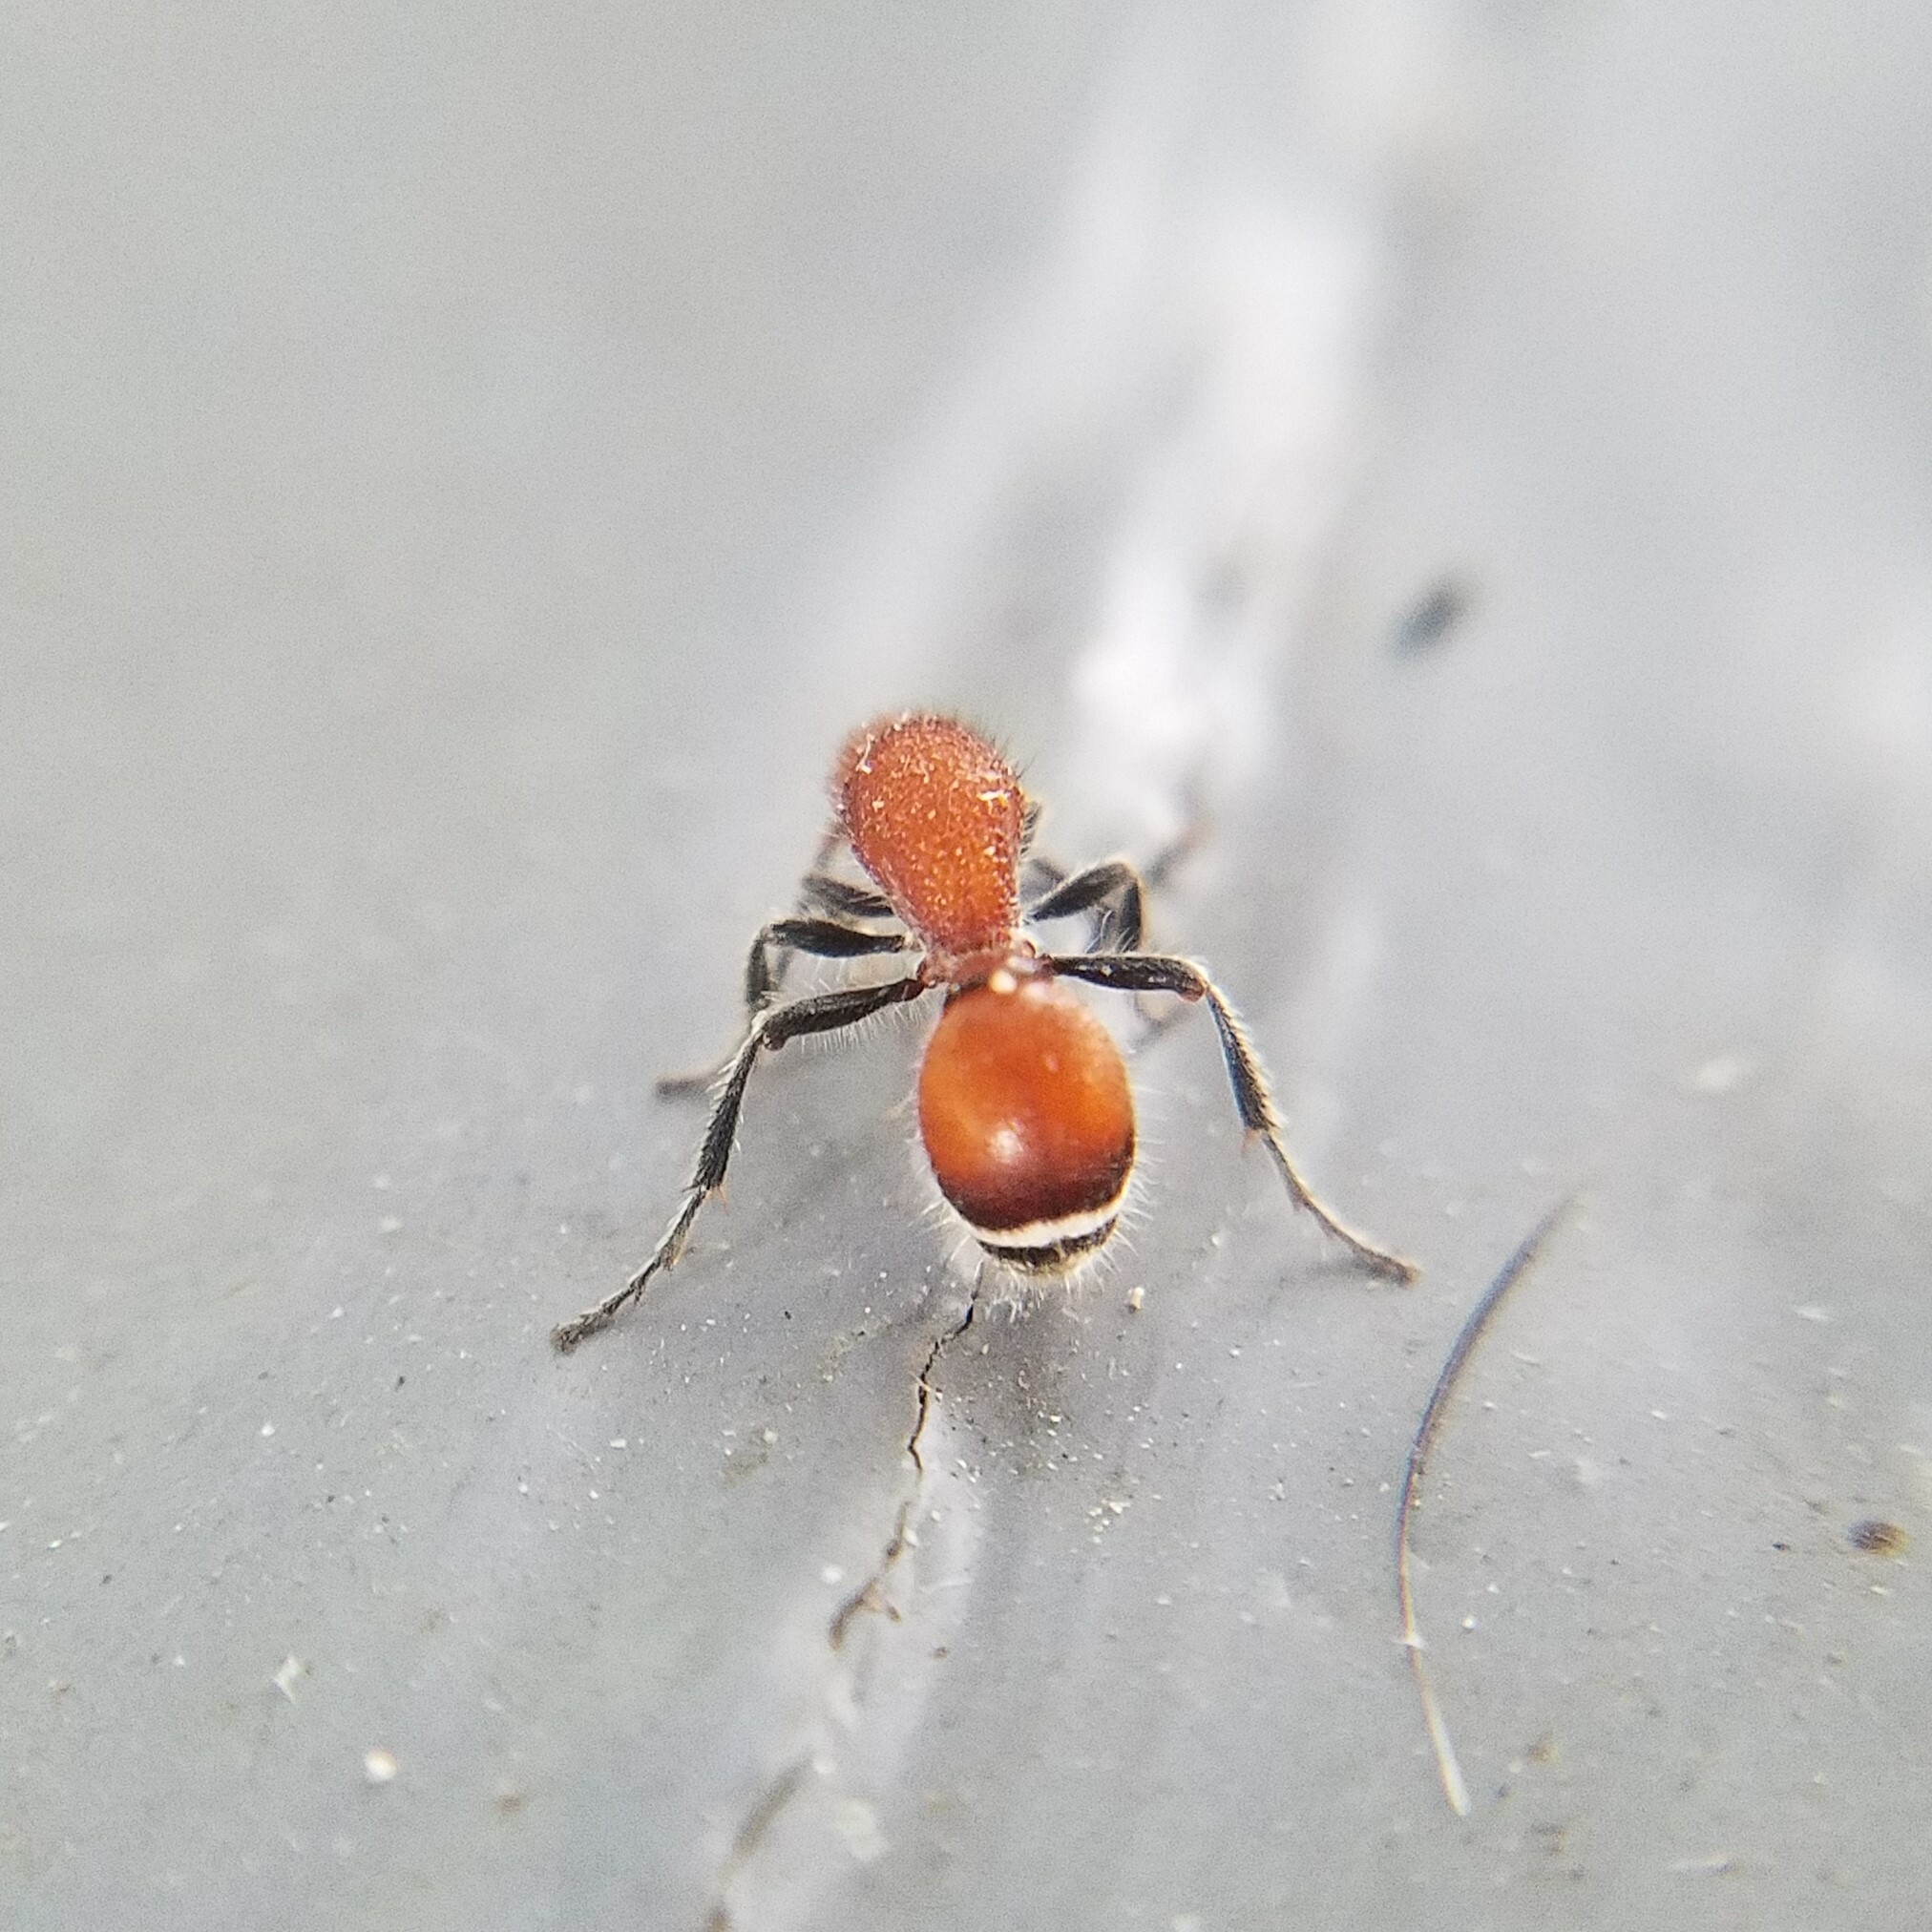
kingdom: Animalia
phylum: Arthropoda
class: Insecta
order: Hymenoptera
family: Mutillidae
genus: Sphaeropthalma
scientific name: Sphaeropthalma
